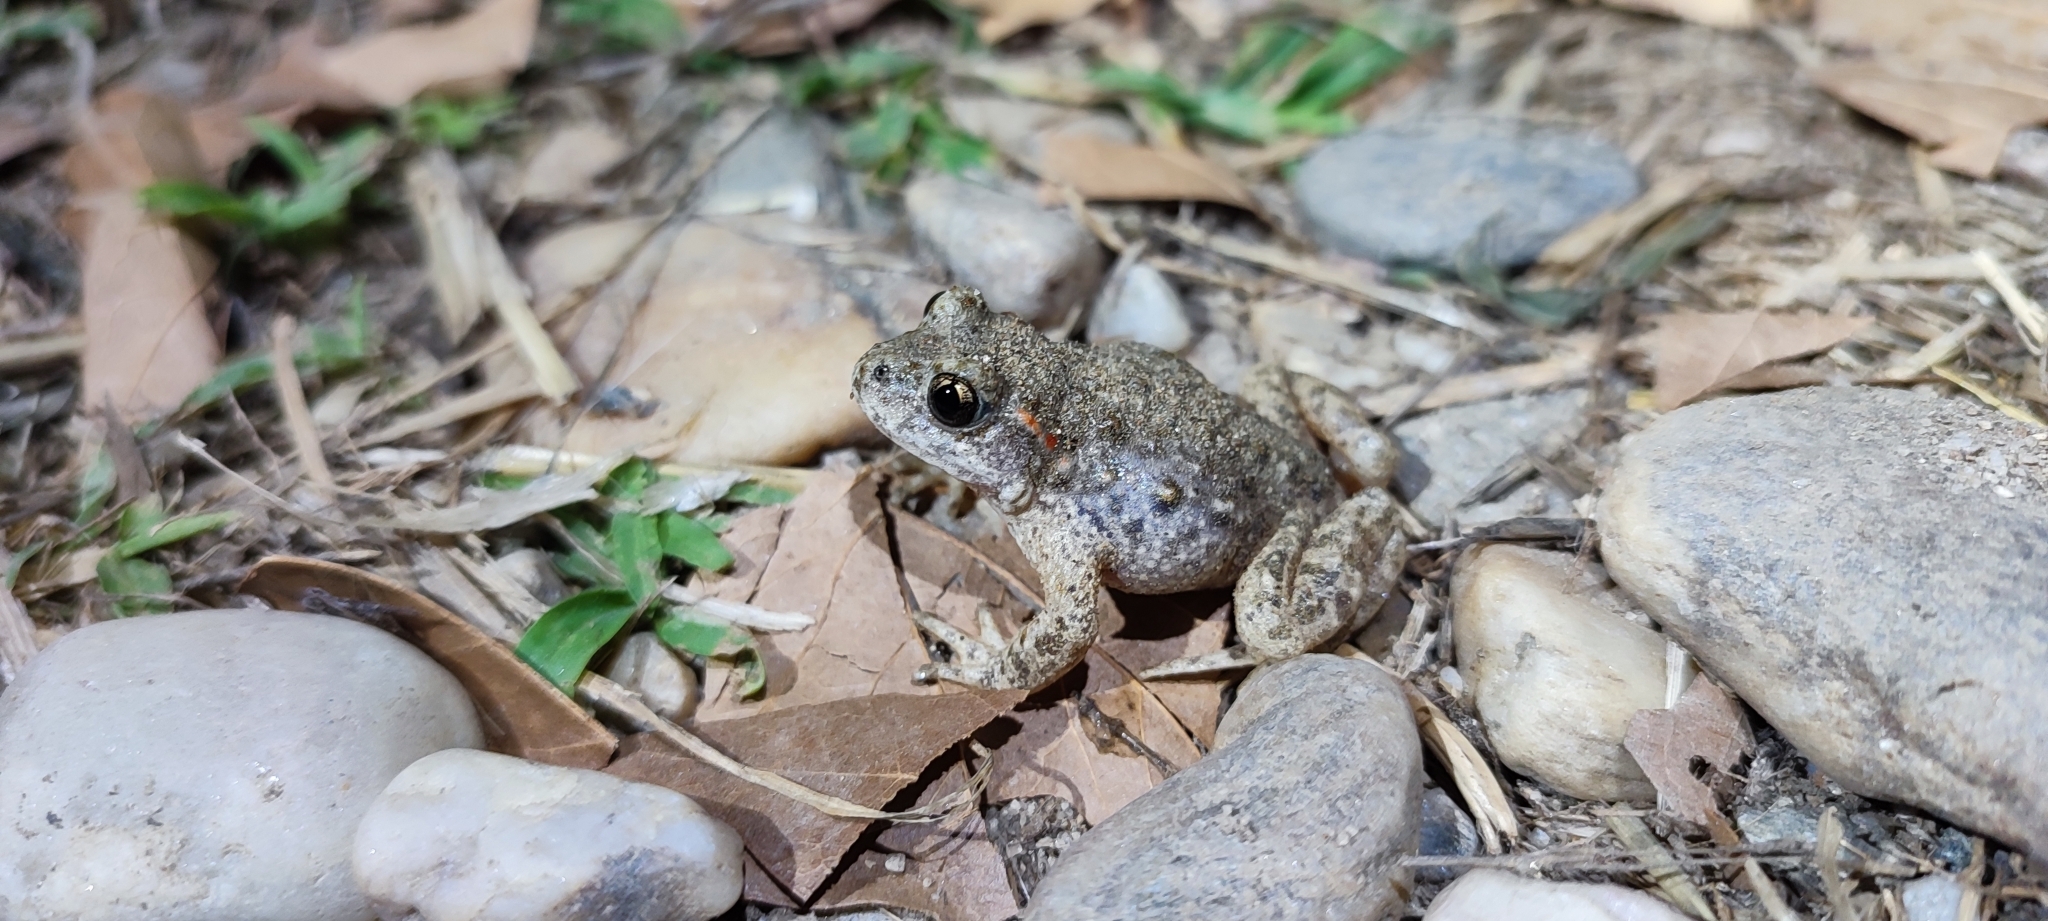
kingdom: Animalia
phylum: Chordata
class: Amphibia
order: Anura
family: Alytidae
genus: Alytes
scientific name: Alytes obstetricans
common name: Midwife toad
